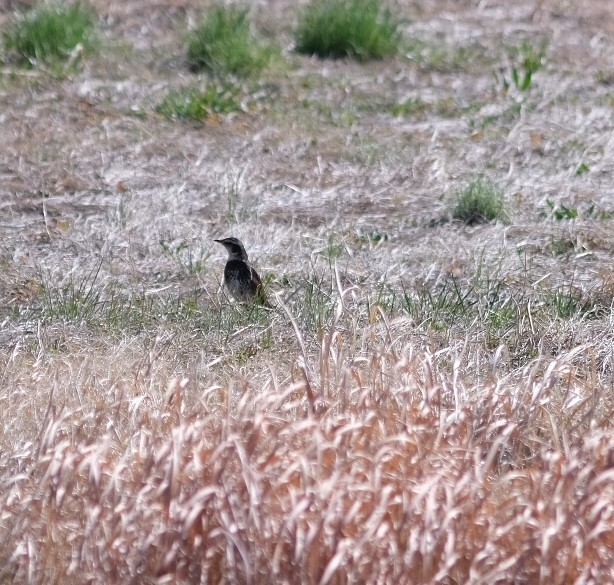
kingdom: Animalia
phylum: Chordata
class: Aves
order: Passeriformes
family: Turdidae
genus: Turdus
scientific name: Turdus eunomus
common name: Dusky thrush
